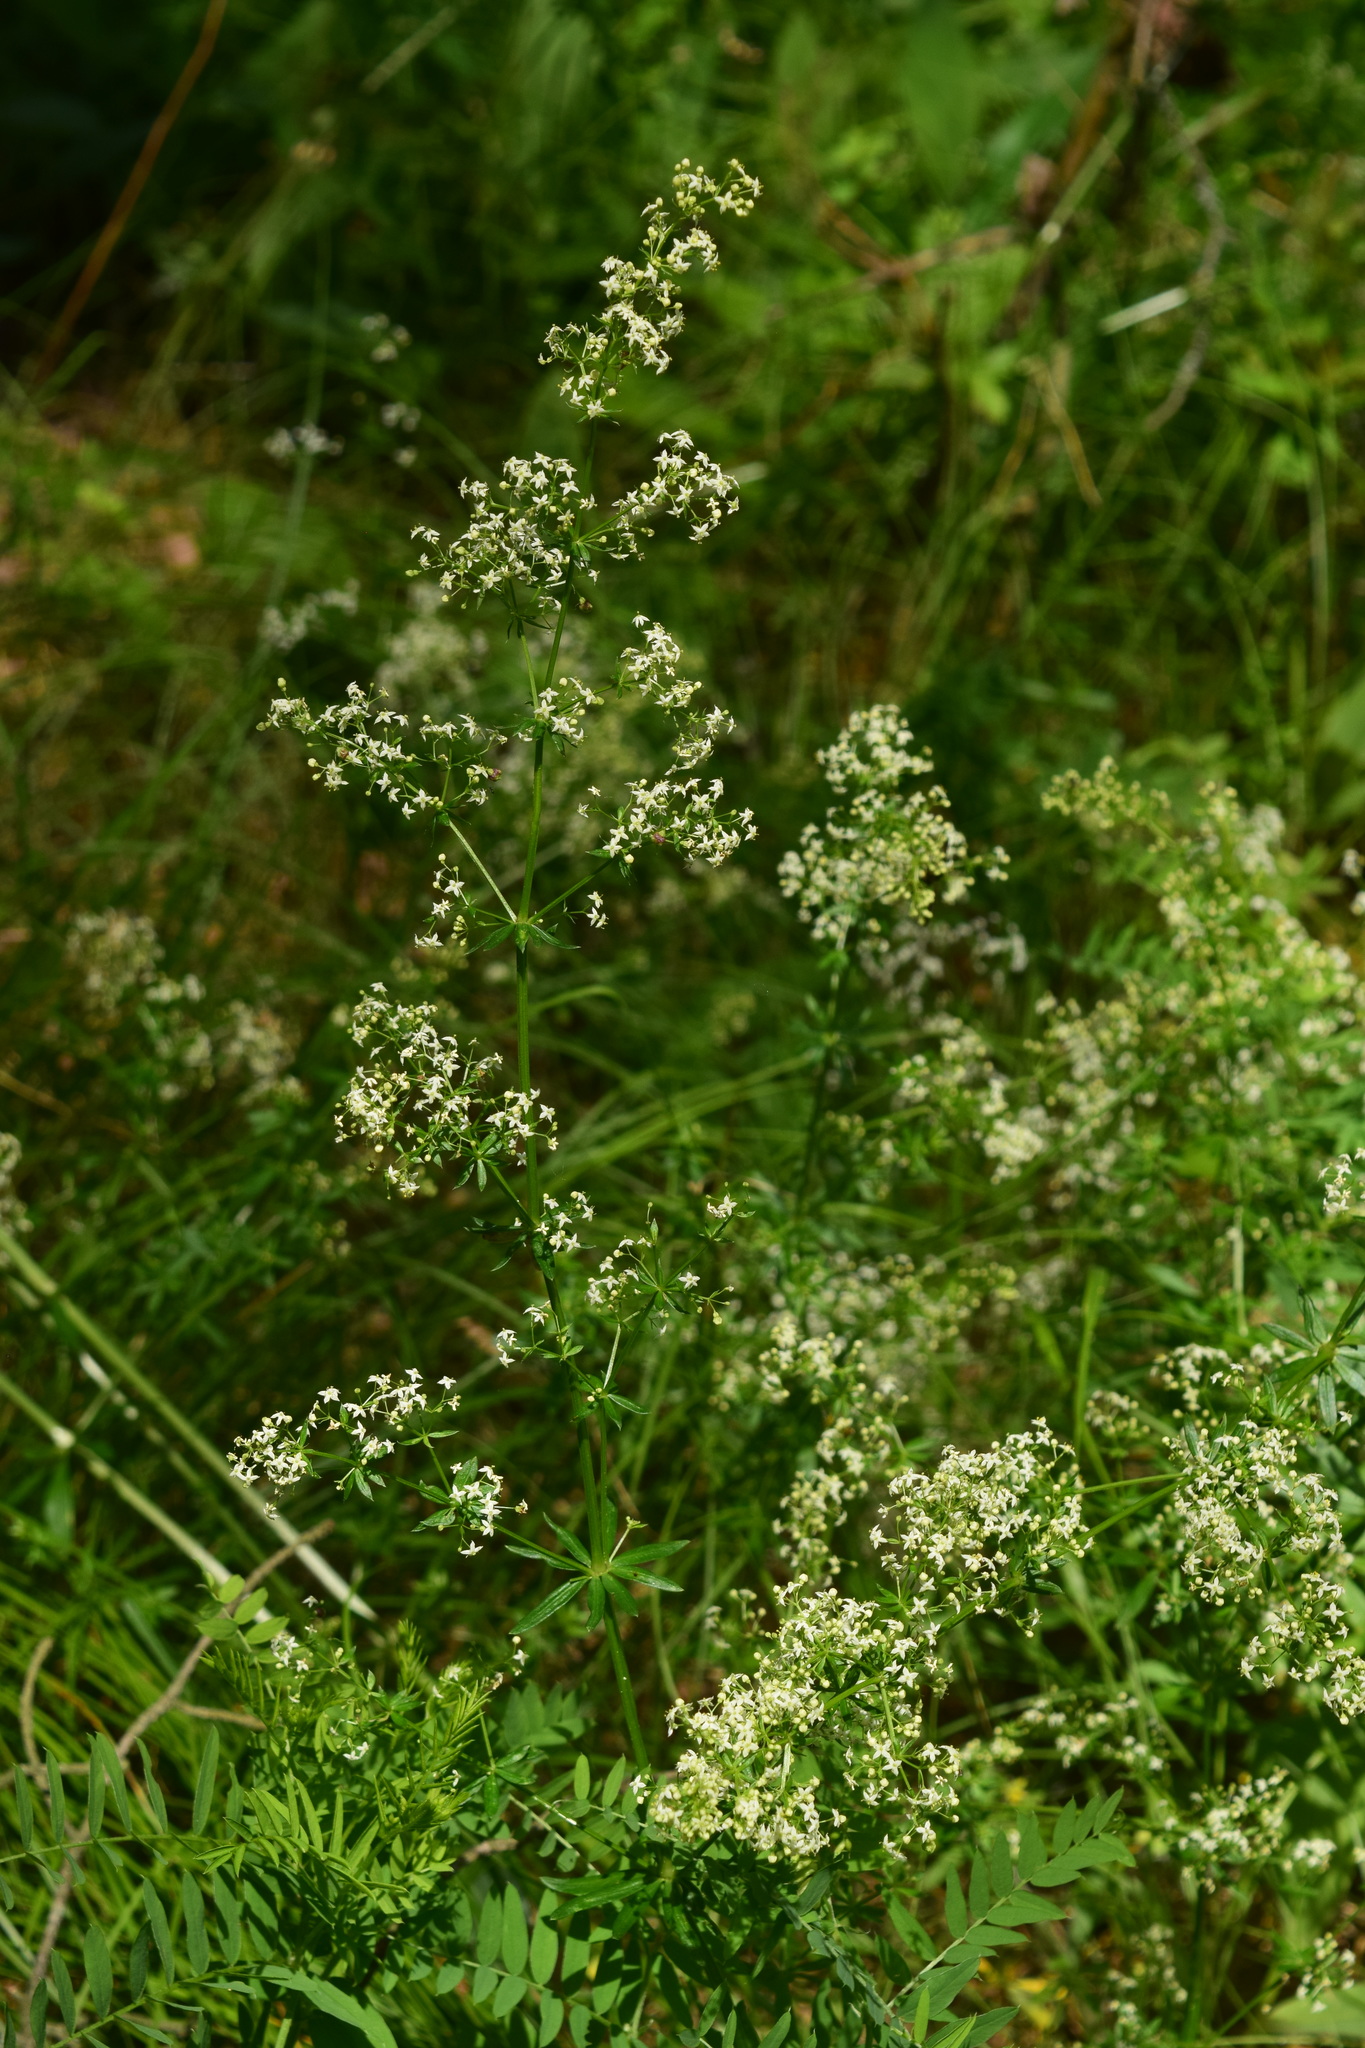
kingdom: Plantae
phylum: Tracheophyta
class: Magnoliopsida
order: Gentianales
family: Rubiaceae
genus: Galium
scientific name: Galium mollugo
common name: Hedge bedstraw
